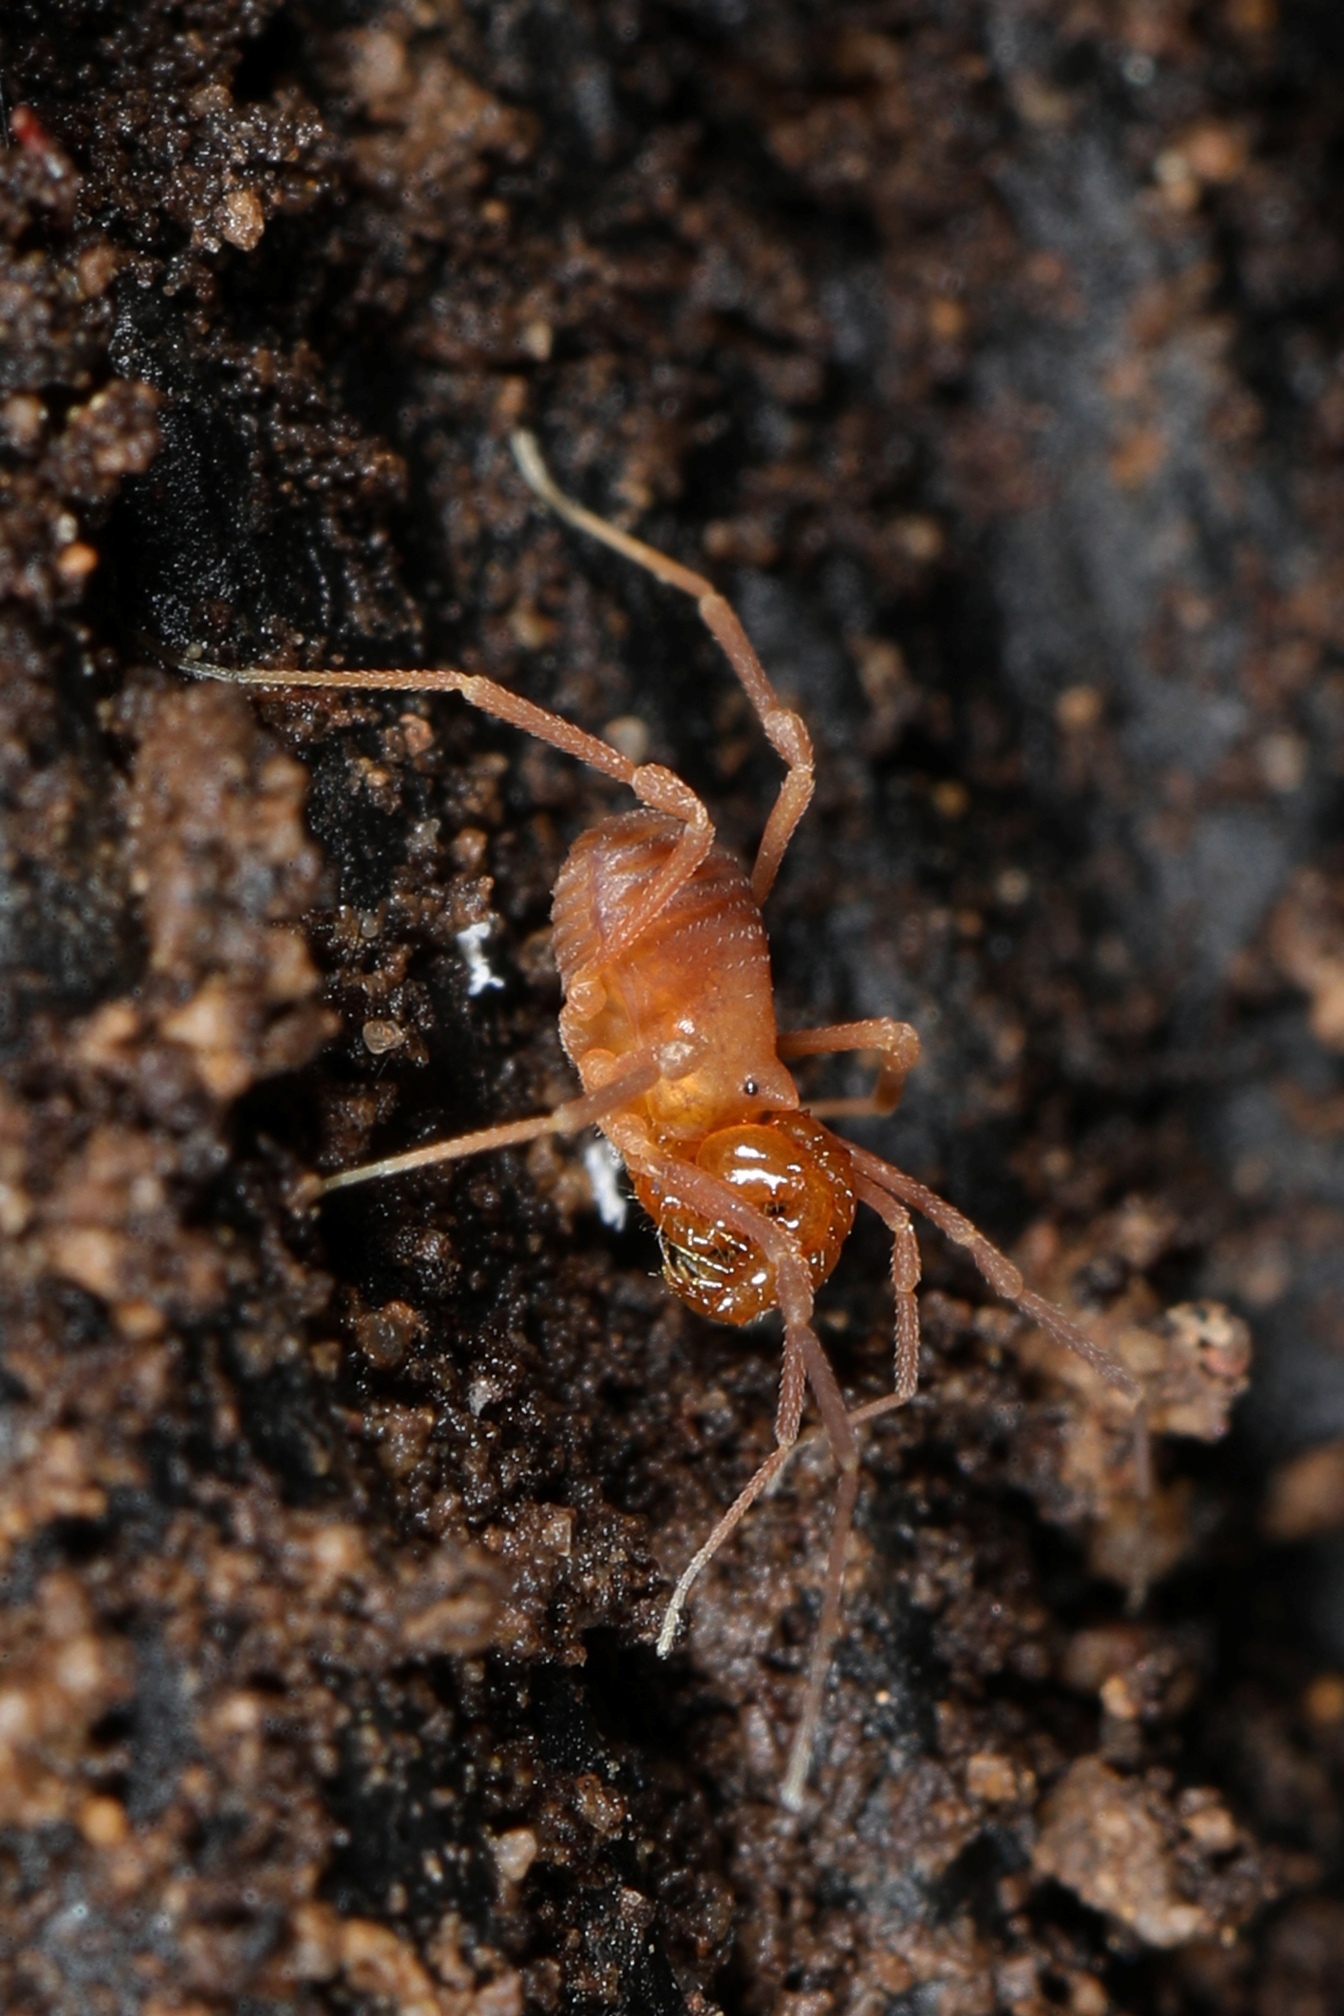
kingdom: Animalia
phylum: Arthropoda
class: Arachnida
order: Opiliones
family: Cladonychiidae
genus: Erebomaster
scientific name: Erebomaster acanthinus
